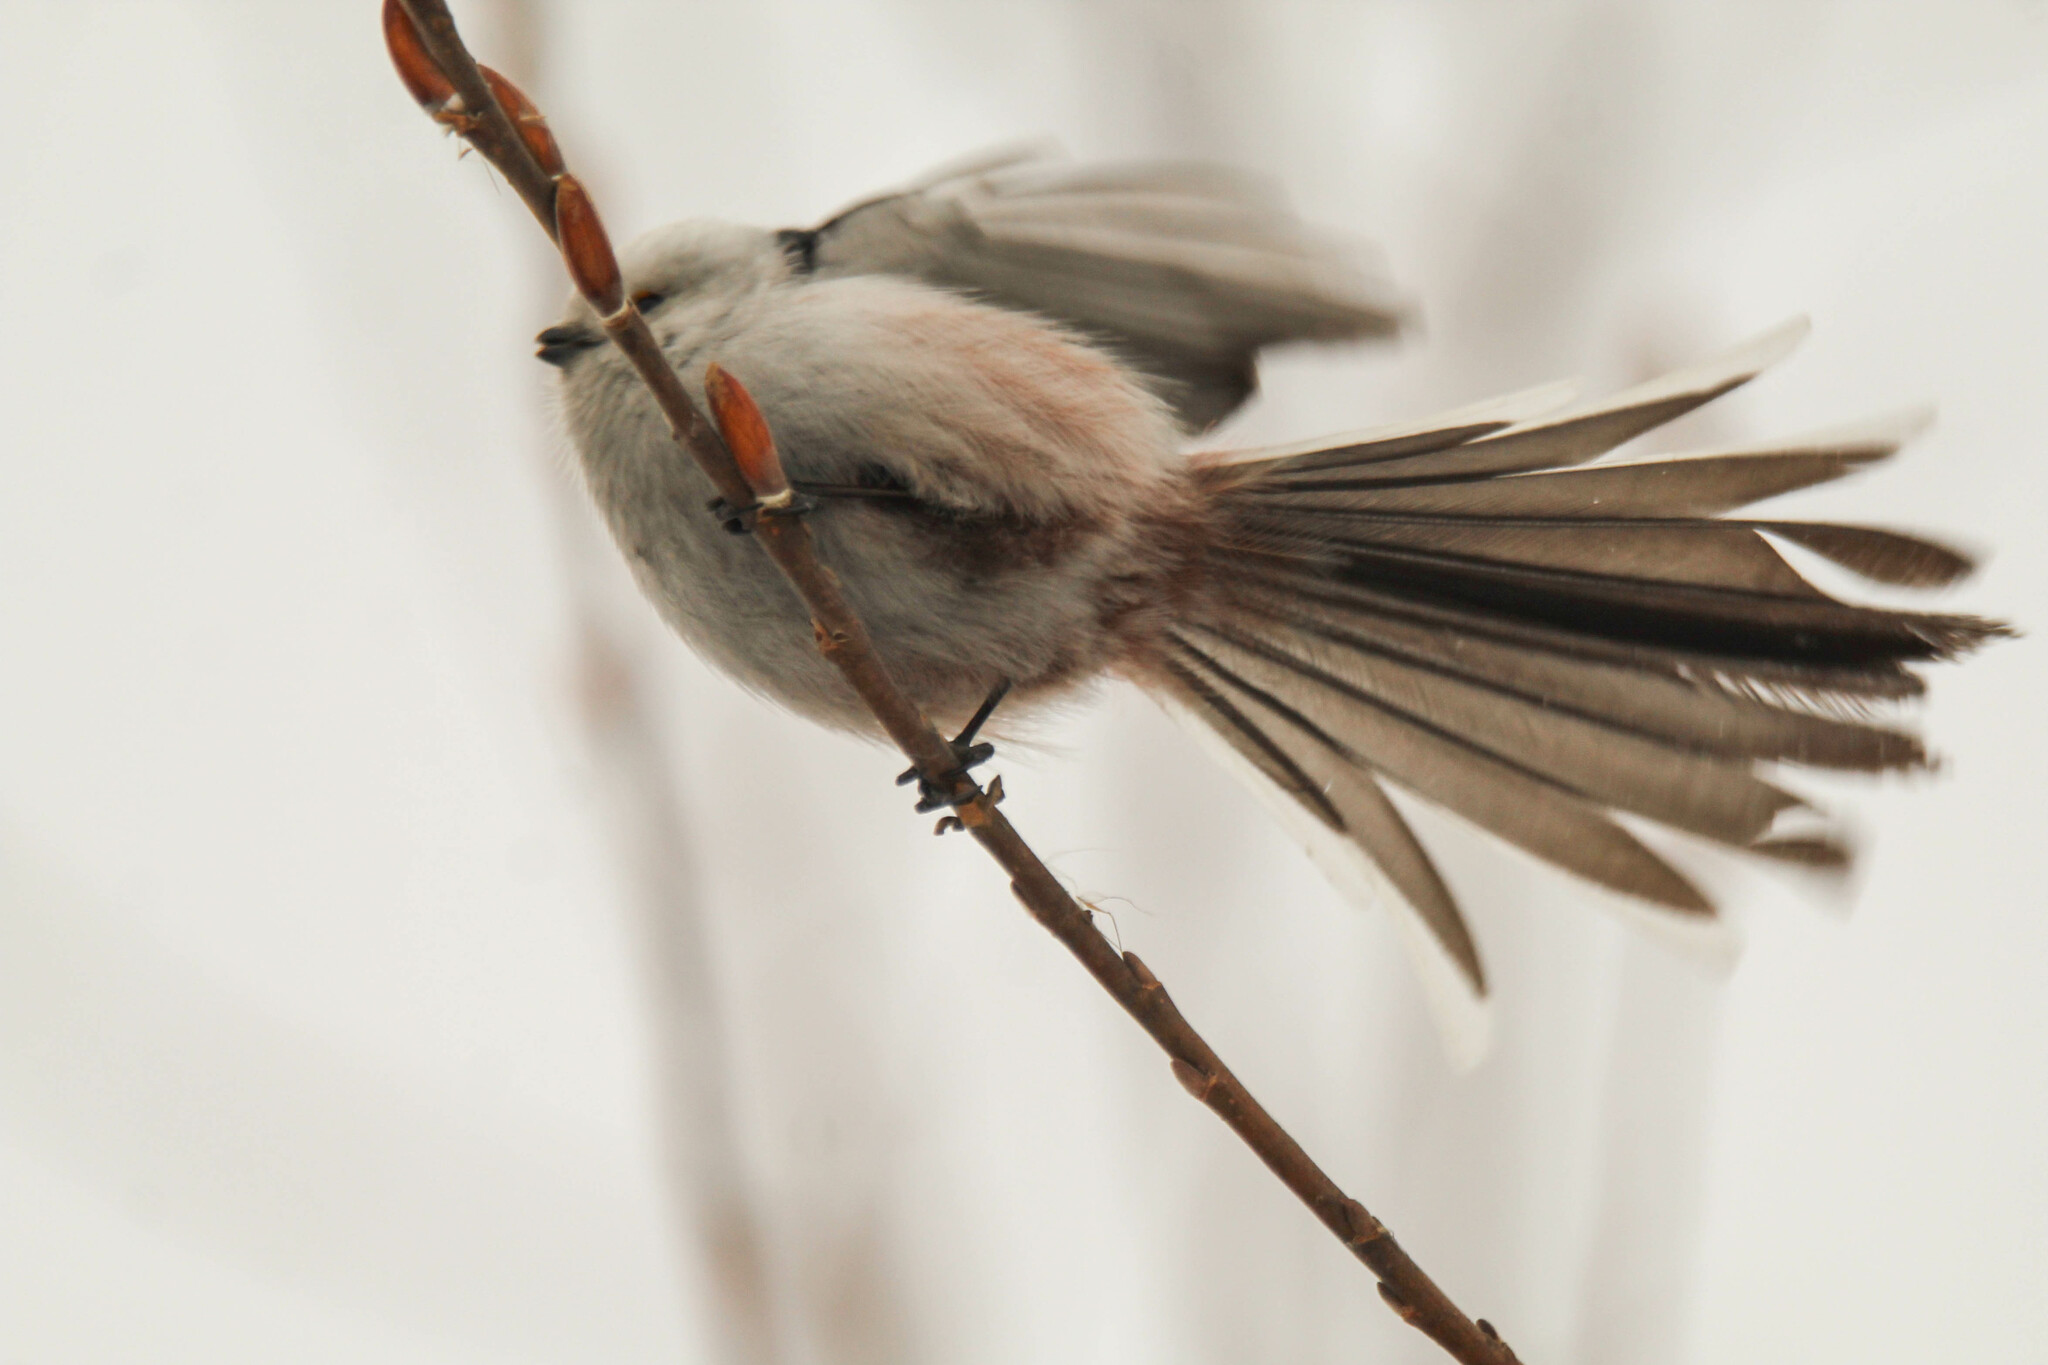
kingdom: Animalia
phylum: Chordata
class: Aves
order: Passeriformes
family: Aegithalidae
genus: Aegithalos
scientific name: Aegithalos caudatus
